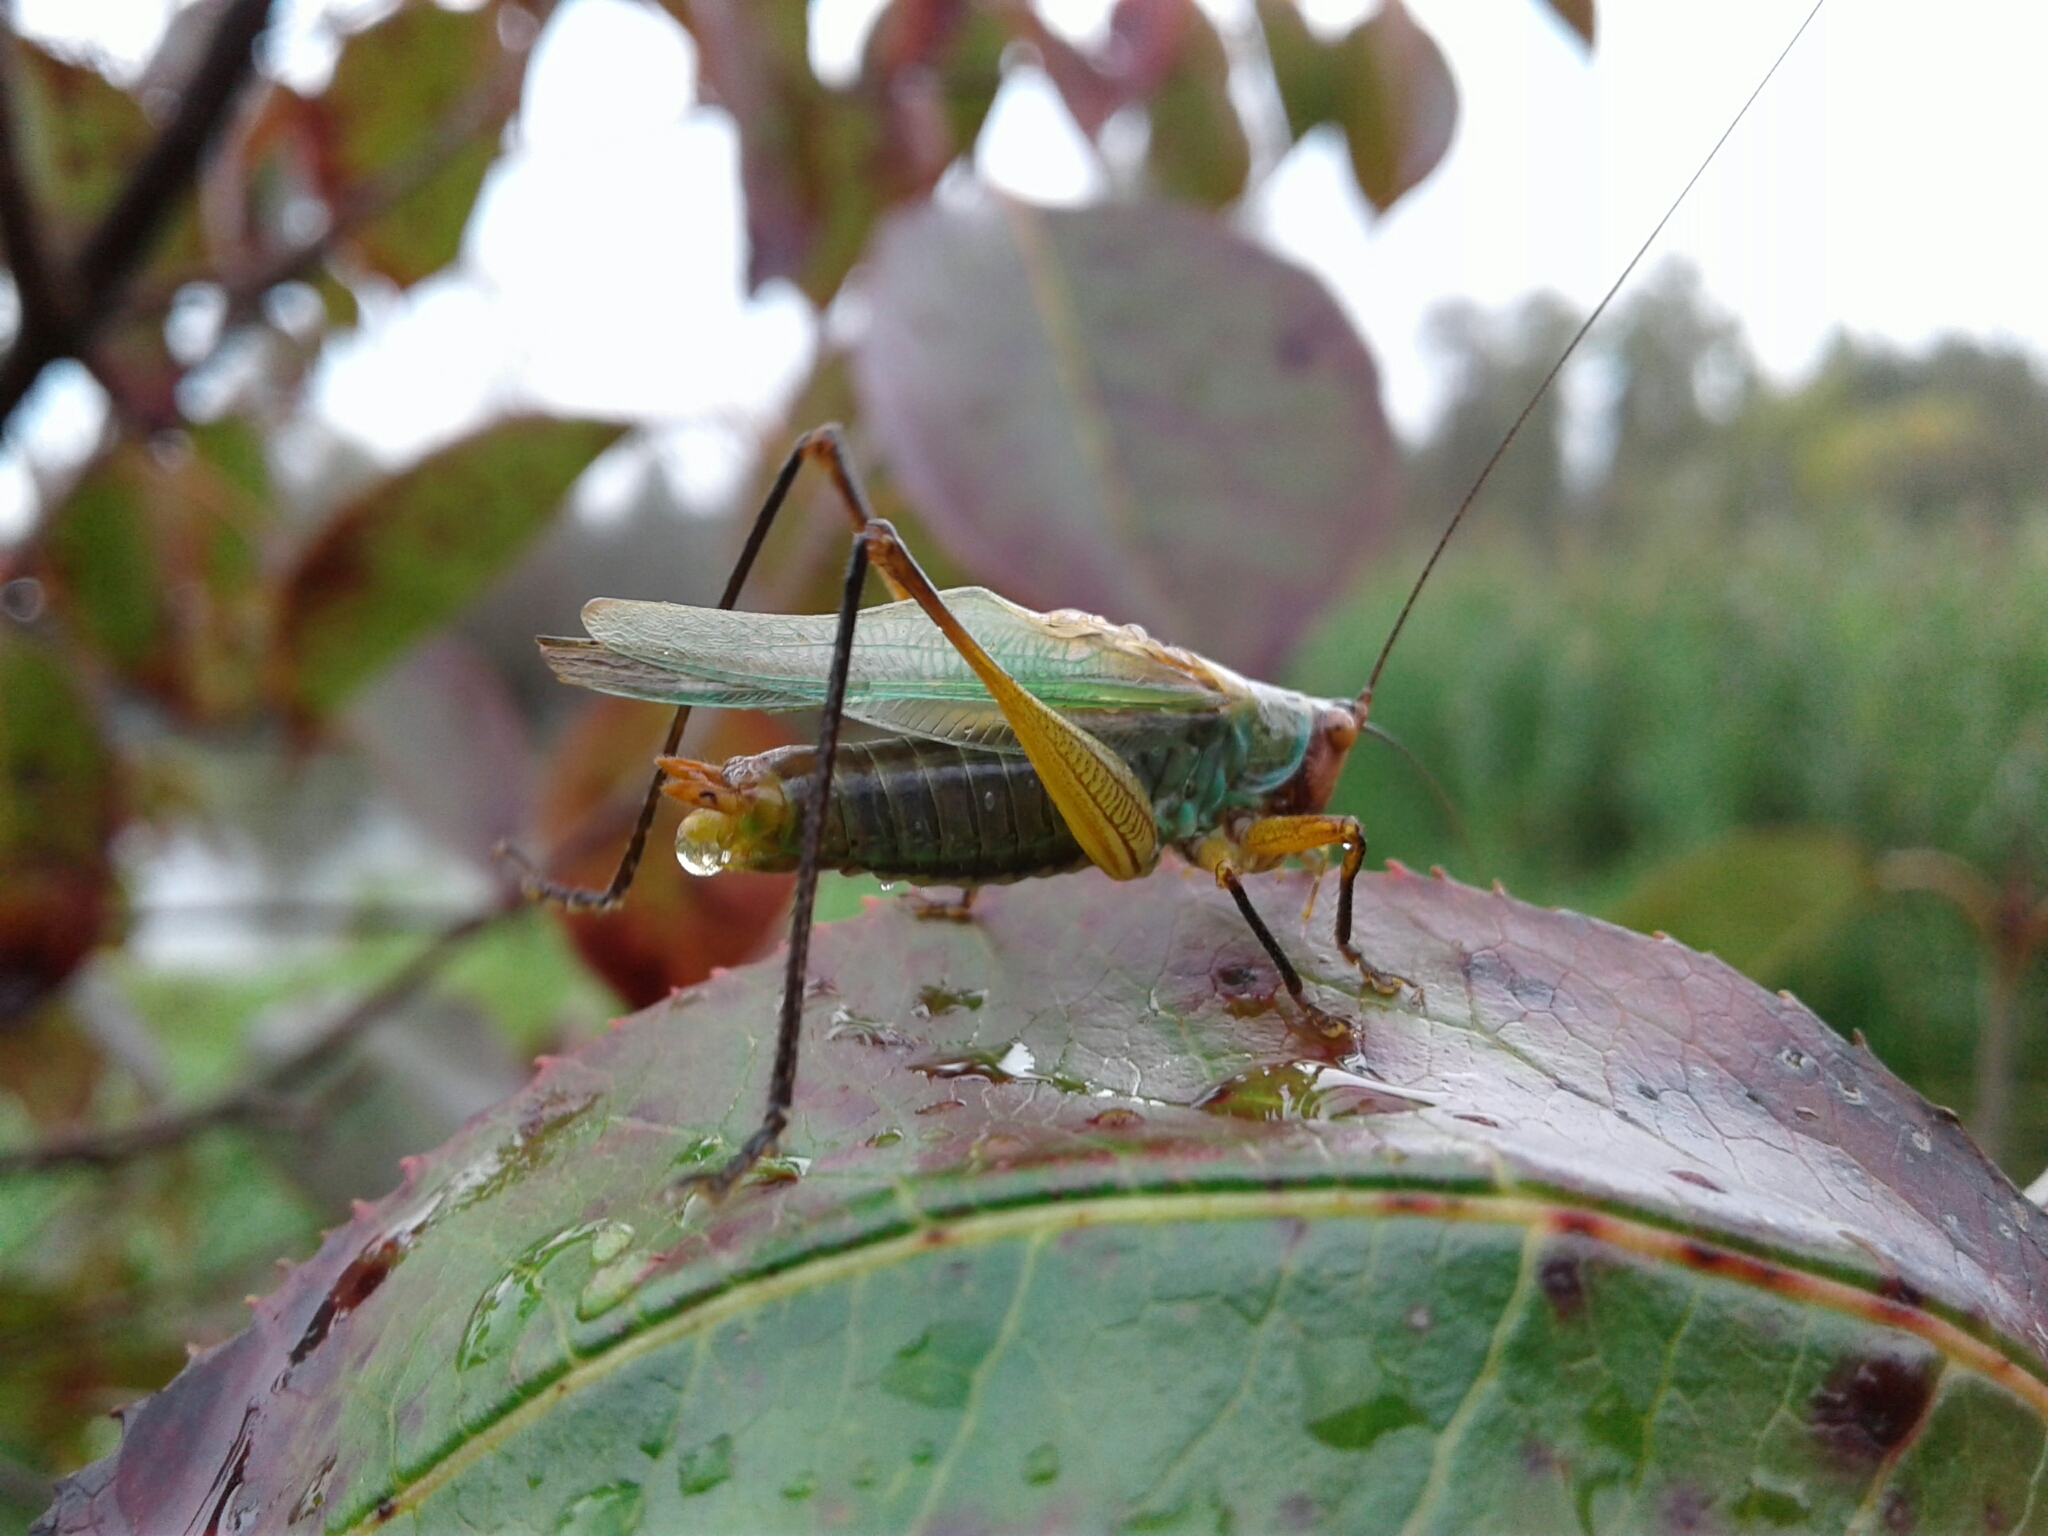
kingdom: Animalia
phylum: Arthropoda
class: Insecta
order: Orthoptera
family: Tettigoniidae
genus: Orchelimum
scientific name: Orchelimum nigripes
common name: Black-legged meadow katydid
